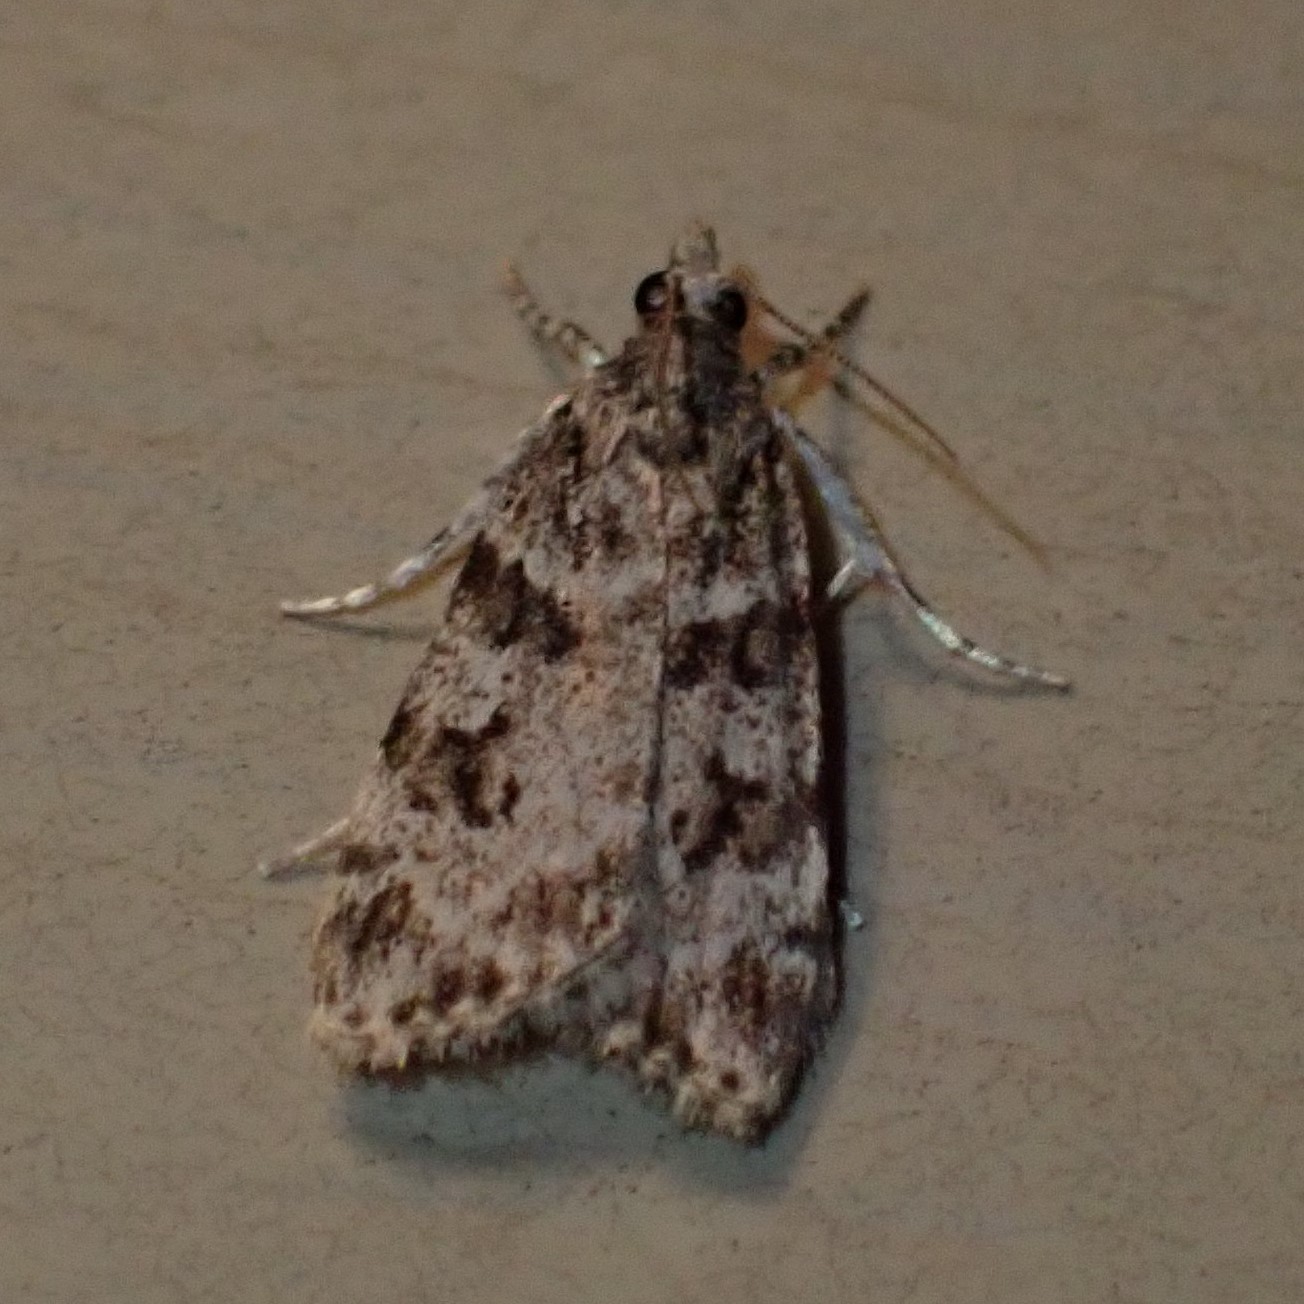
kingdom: Animalia
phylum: Arthropoda
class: Insecta
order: Lepidoptera
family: Crambidae
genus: Scoparia
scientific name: Scoparia biplagialis
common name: Double-striped scoparia moth
